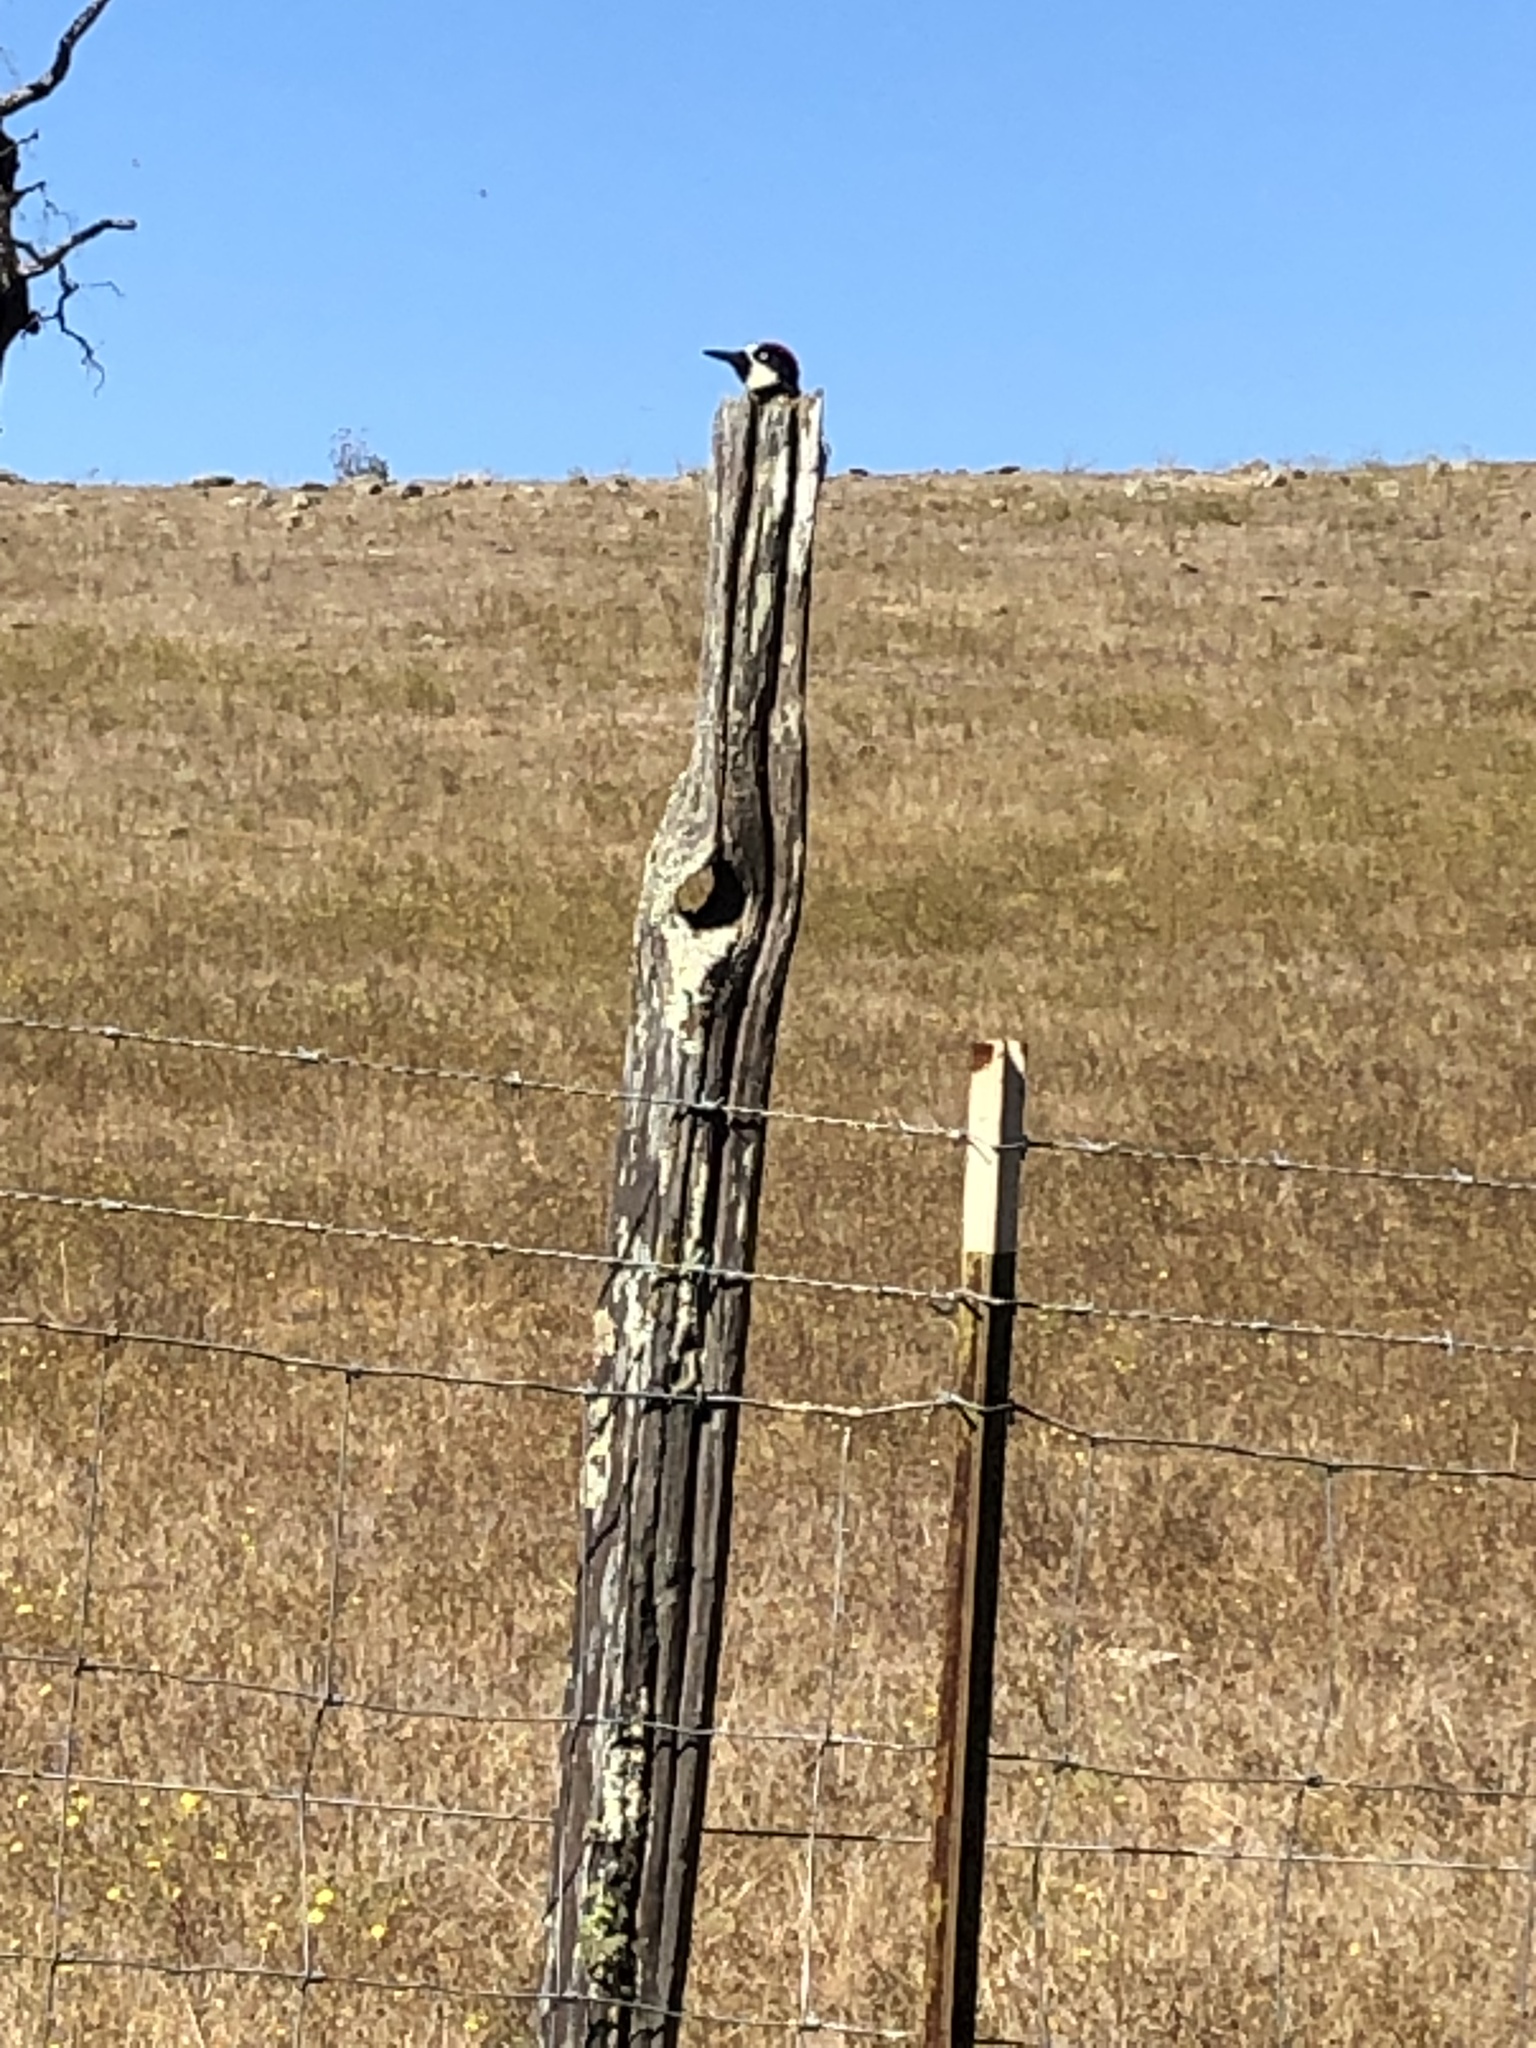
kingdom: Animalia
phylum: Chordata
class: Aves
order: Piciformes
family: Picidae
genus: Melanerpes
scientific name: Melanerpes formicivorus
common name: Acorn woodpecker
